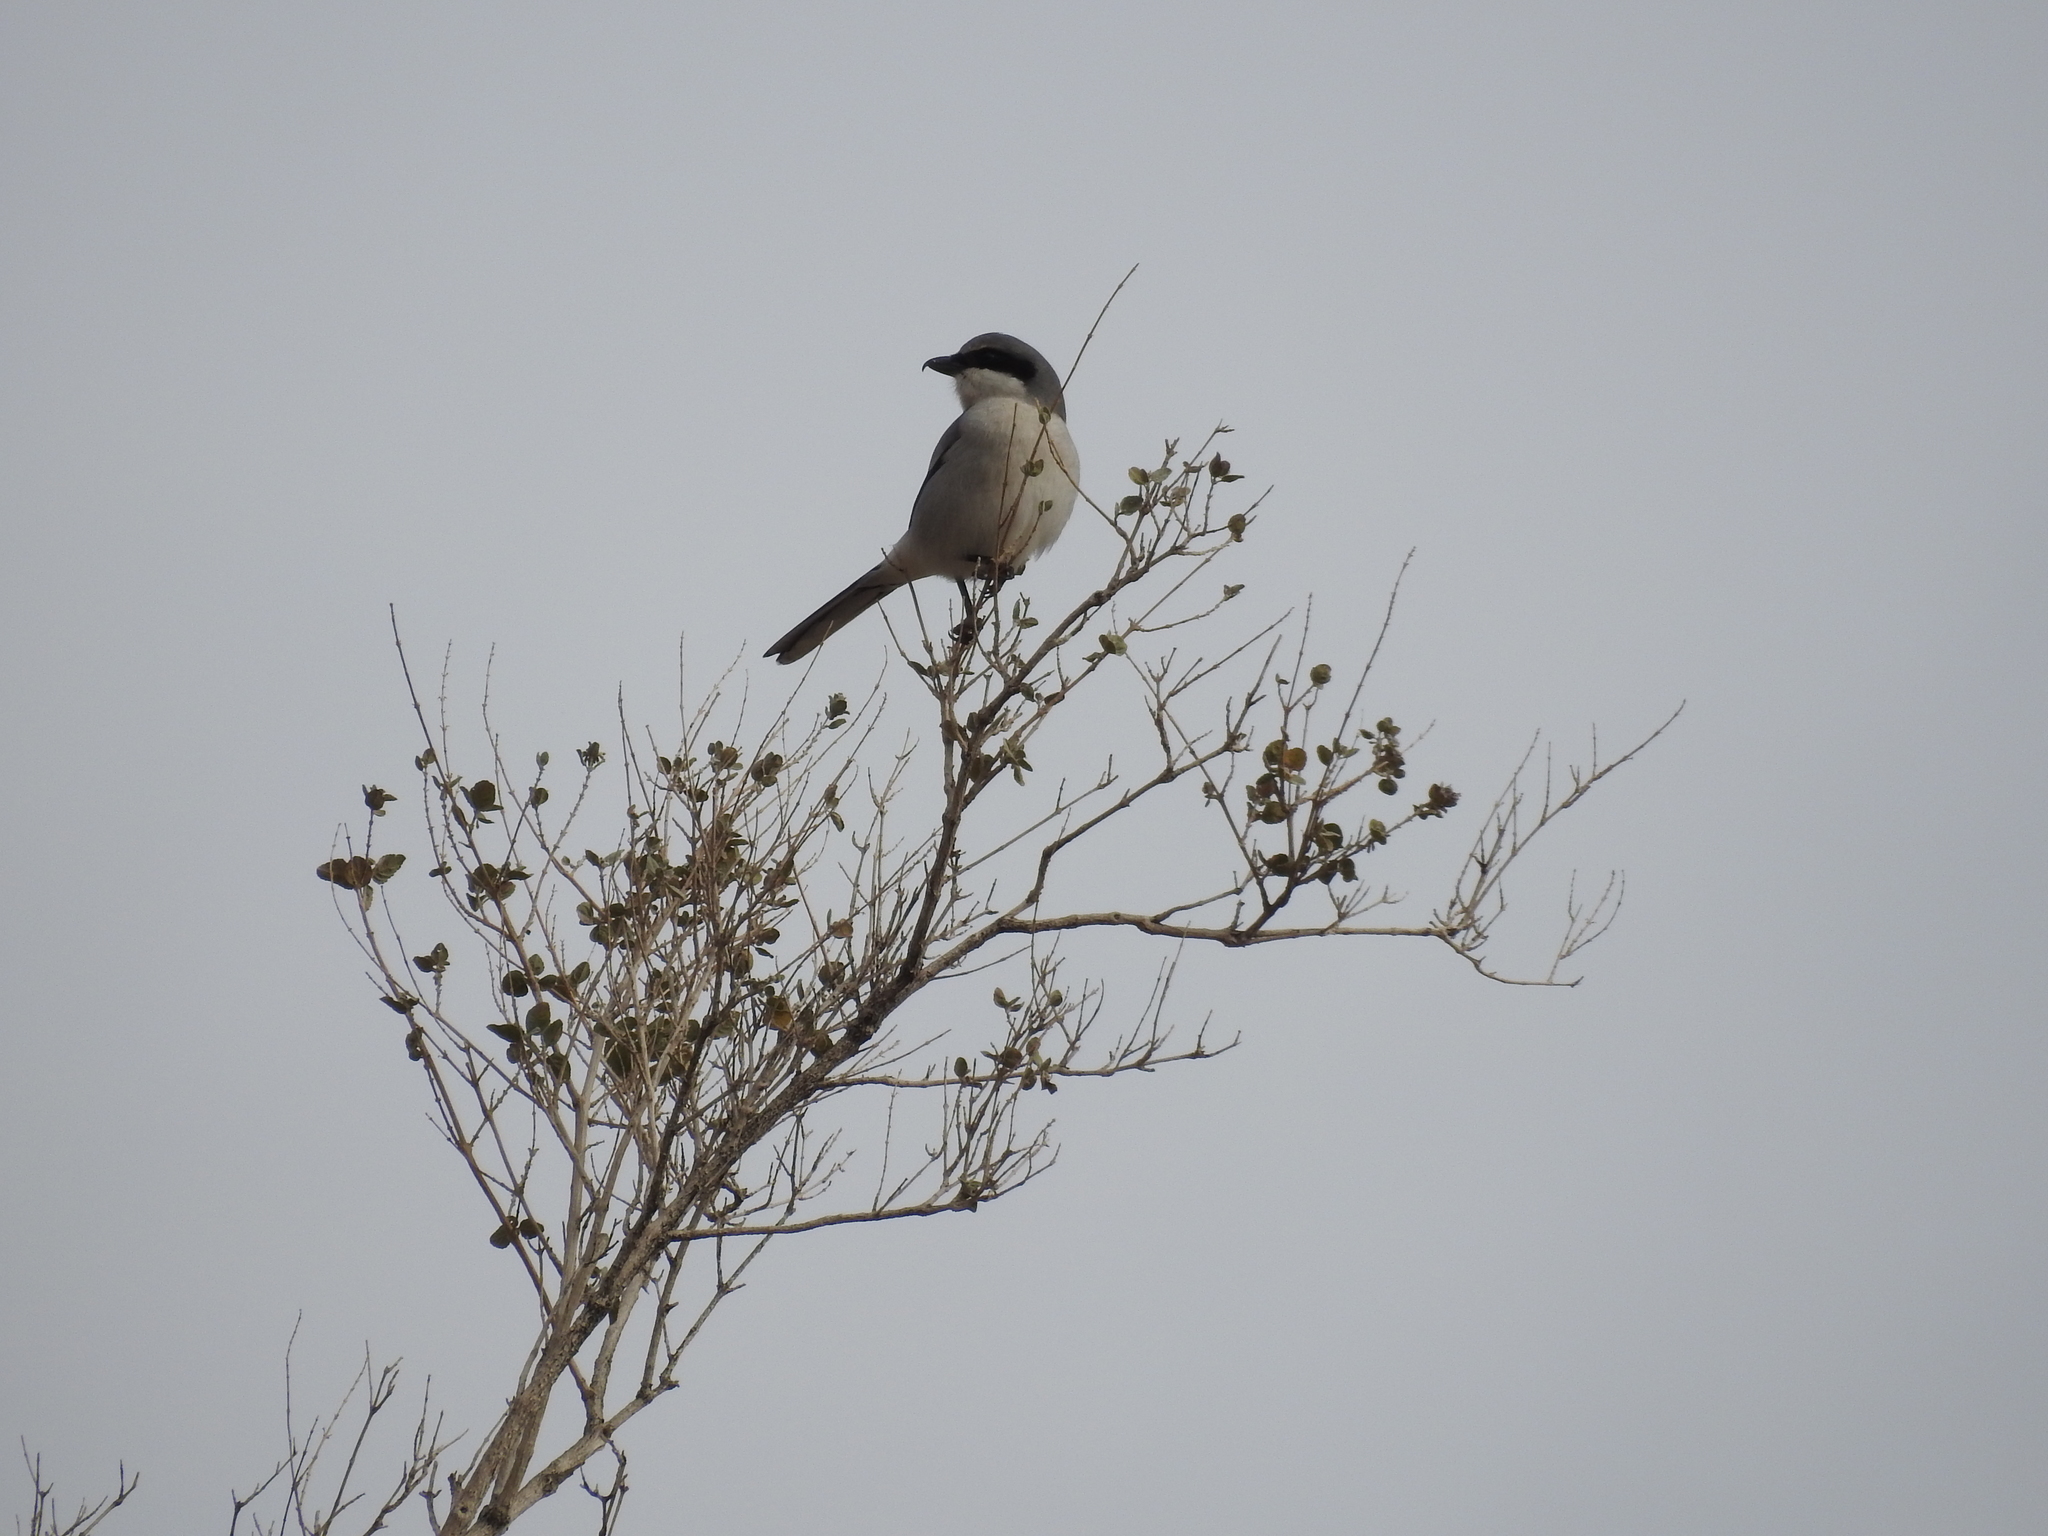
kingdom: Animalia
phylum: Chordata
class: Aves
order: Passeriformes
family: Laniidae
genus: Lanius
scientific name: Lanius ludovicianus
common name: Loggerhead shrike
